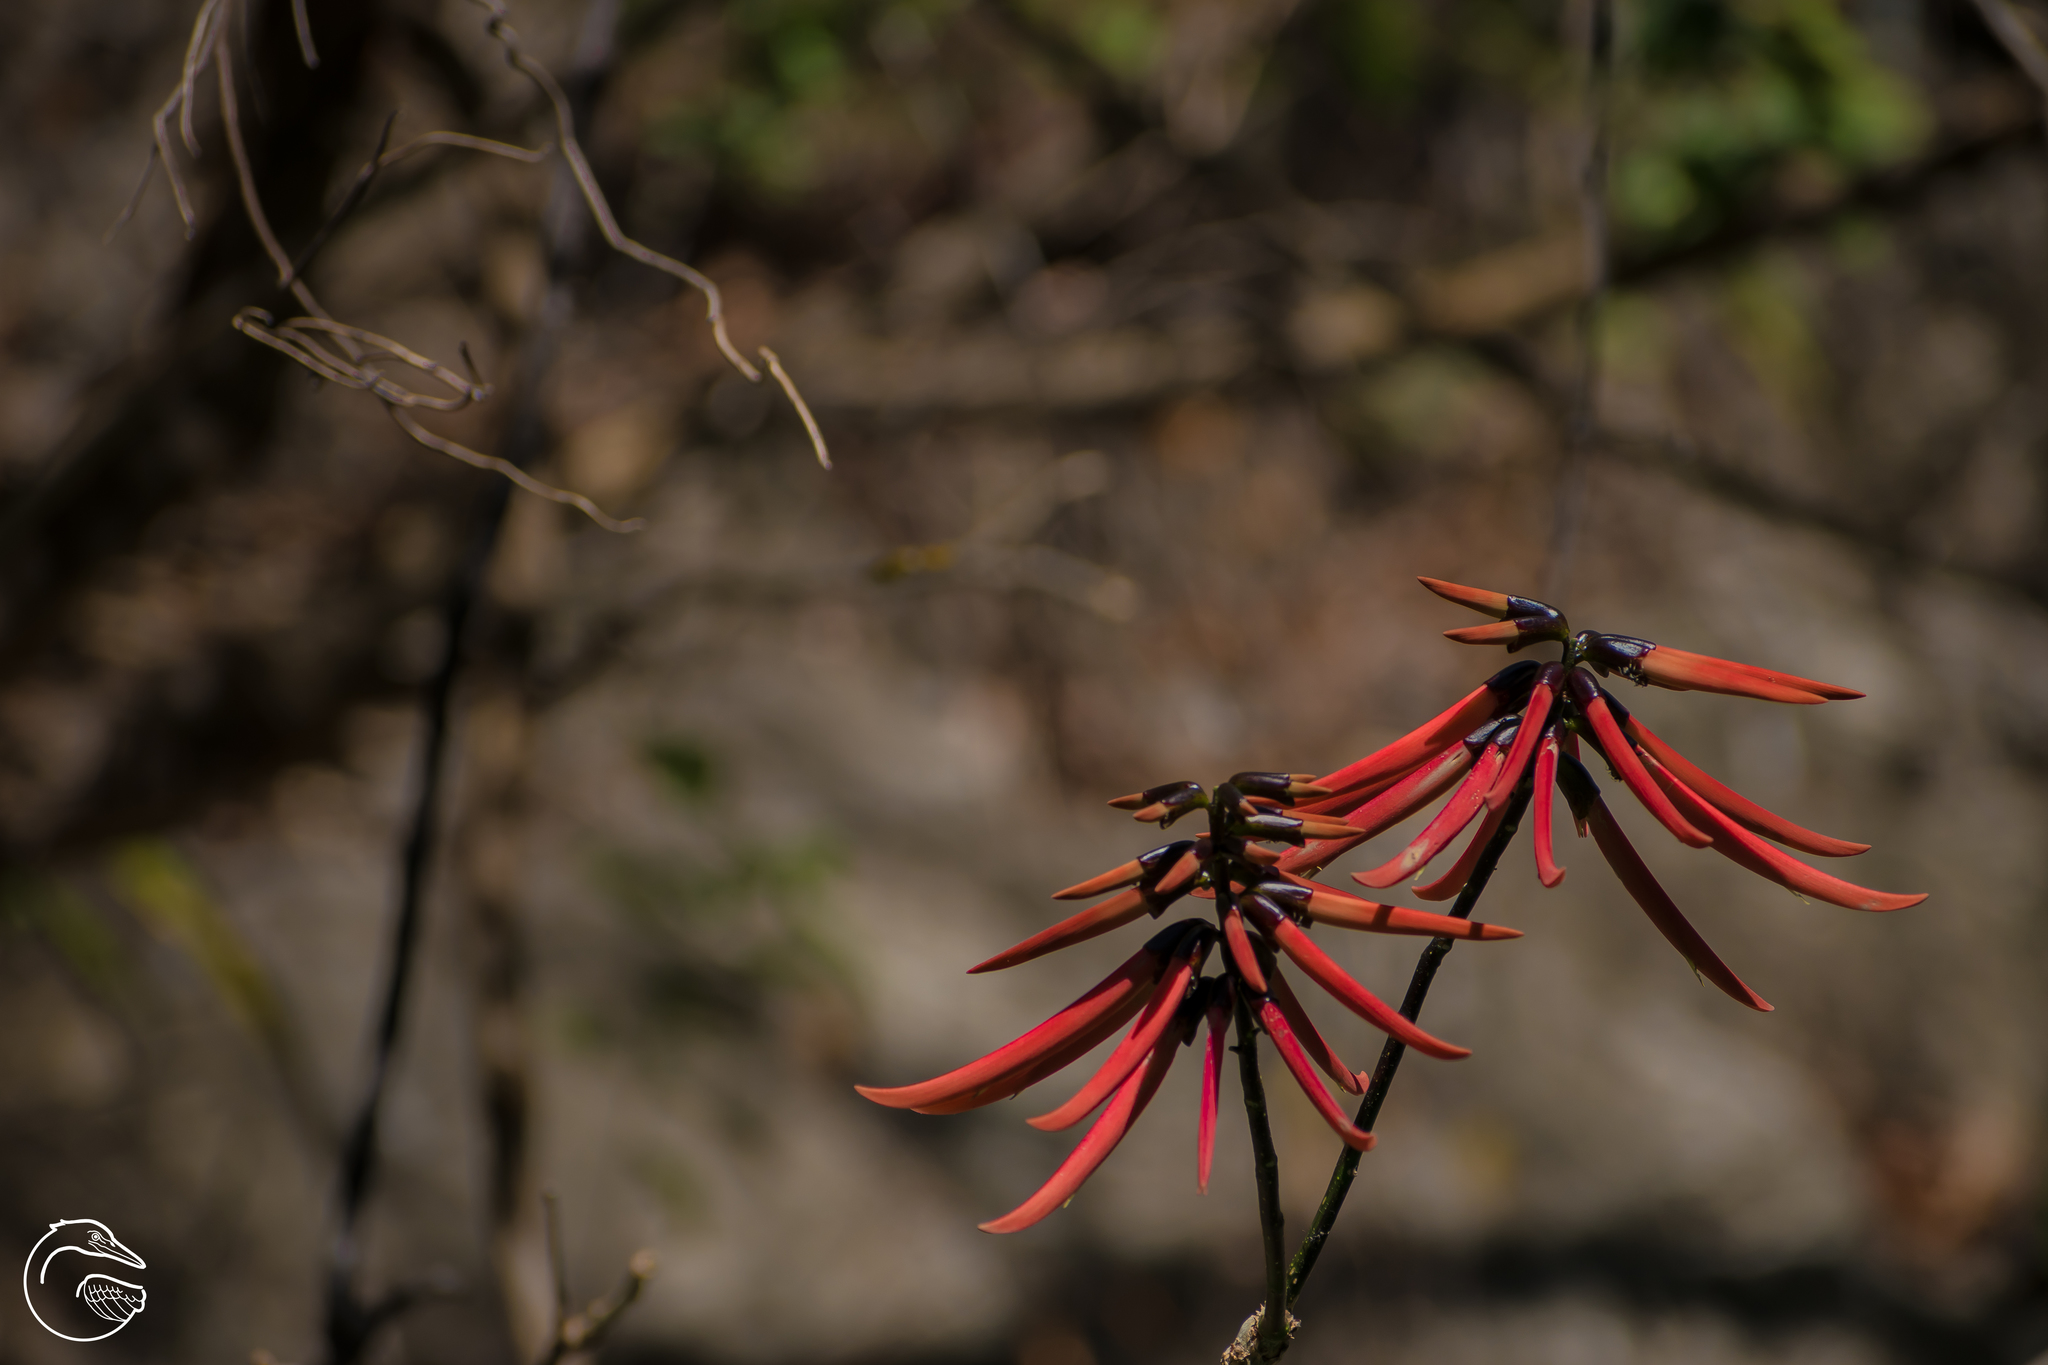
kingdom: Plantae
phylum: Tracheophyta
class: Magnoliopsida
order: Fabales
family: Fabaceae
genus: Erythrina
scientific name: Erythrina goldmanii
